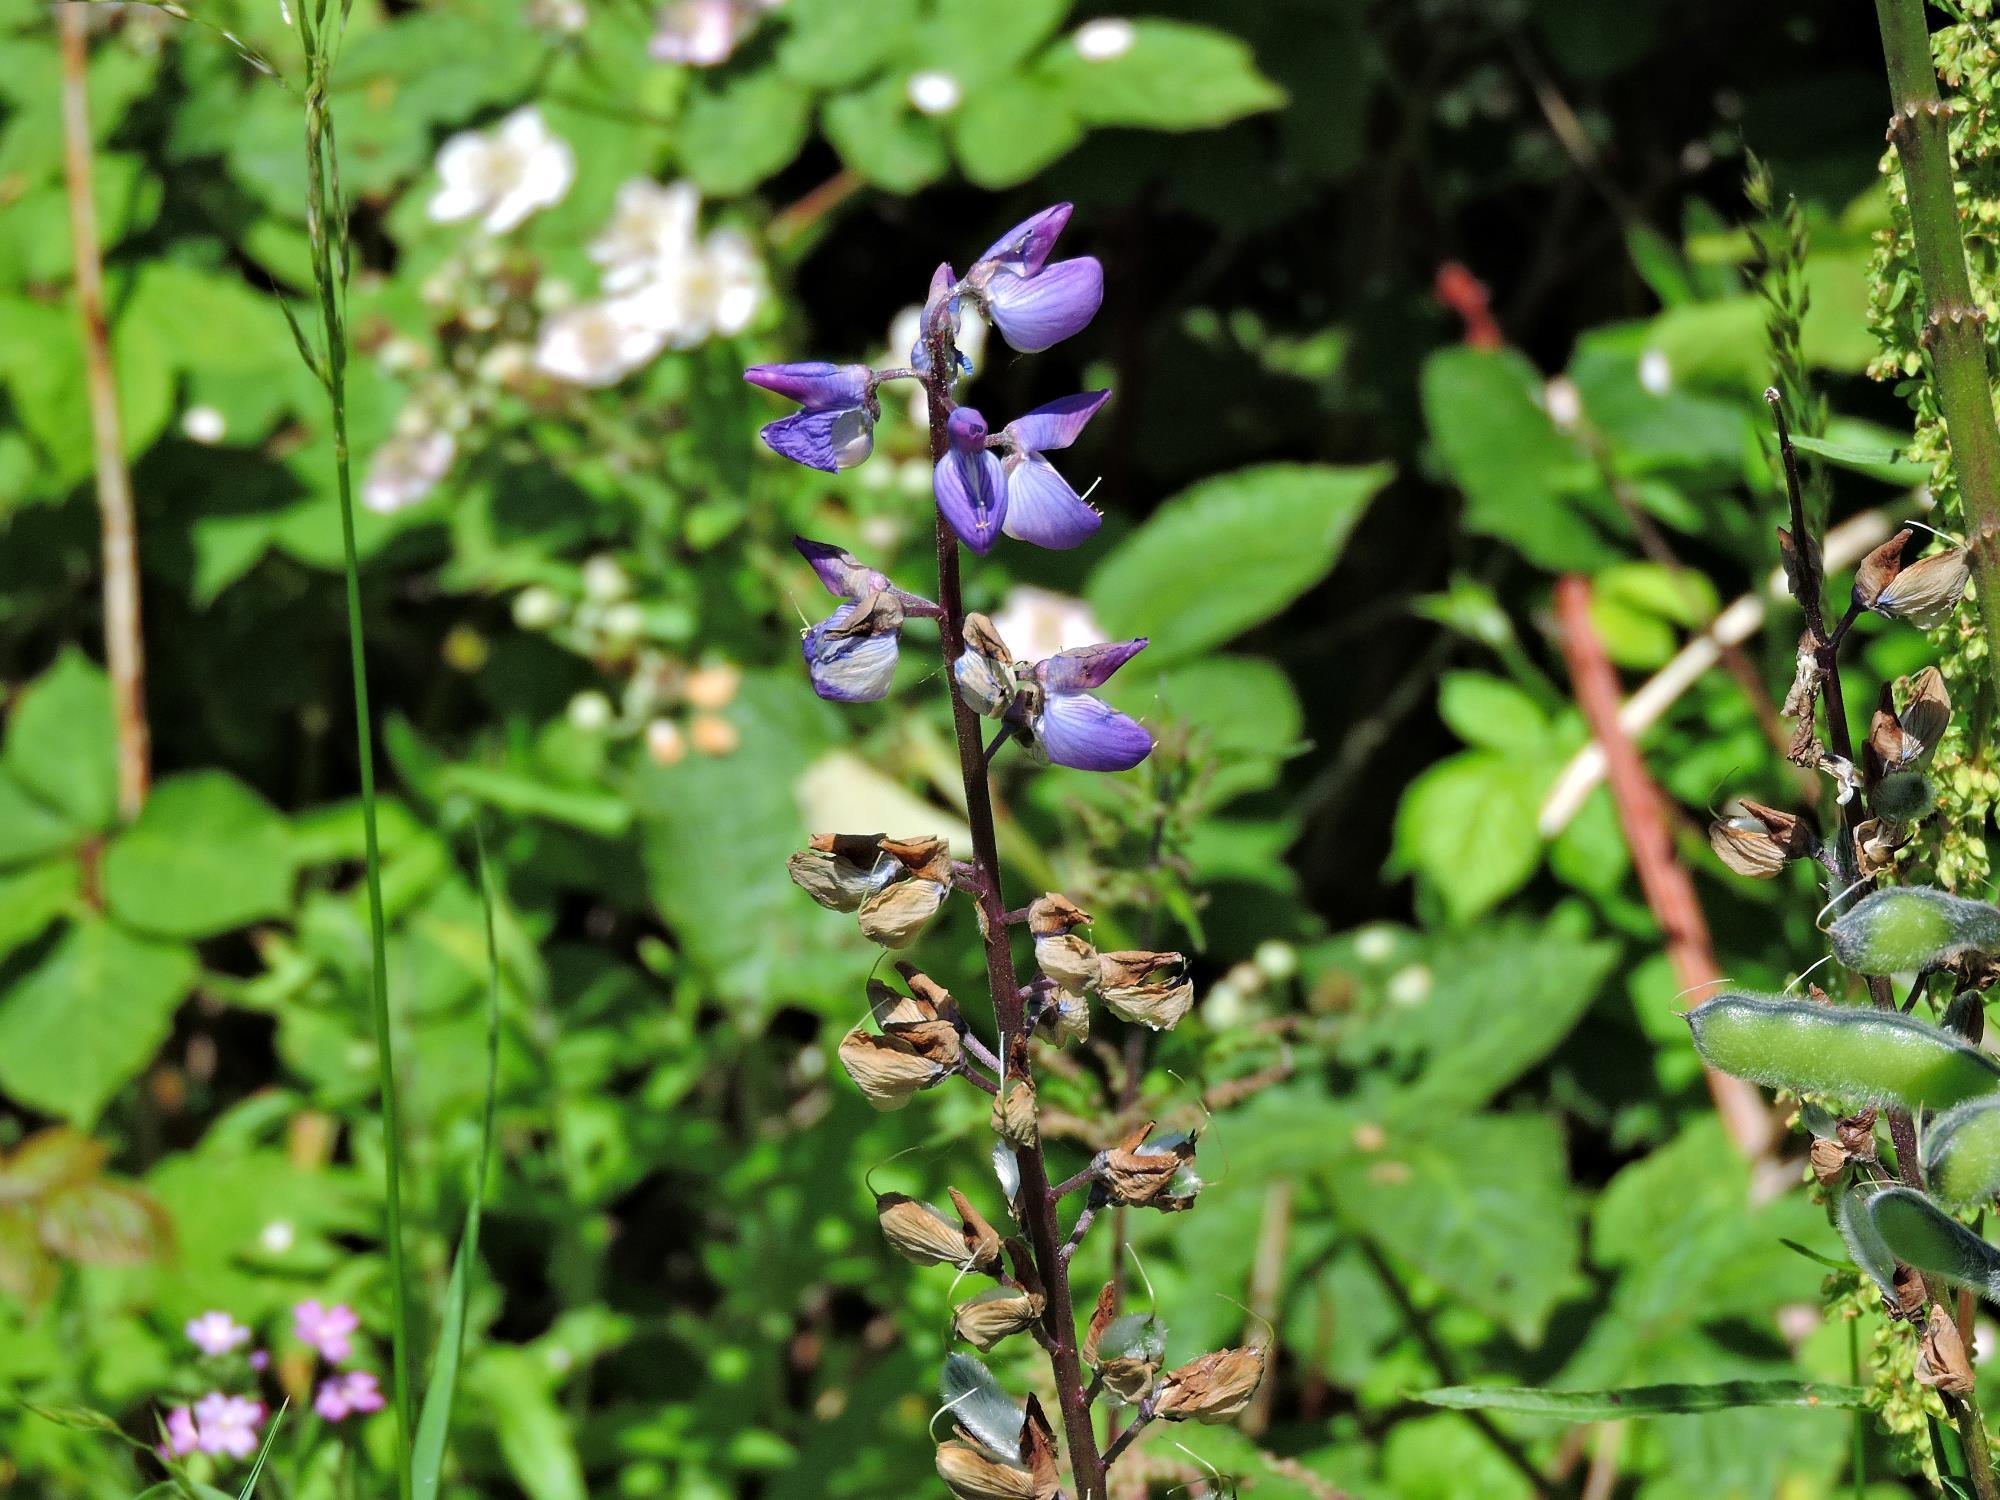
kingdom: Plantae
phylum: Tracheophyta
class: Magnoliopsida
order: Fabales
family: Fabaceae
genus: Lupinus
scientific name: Lupinus regalis
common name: Russell lupin
